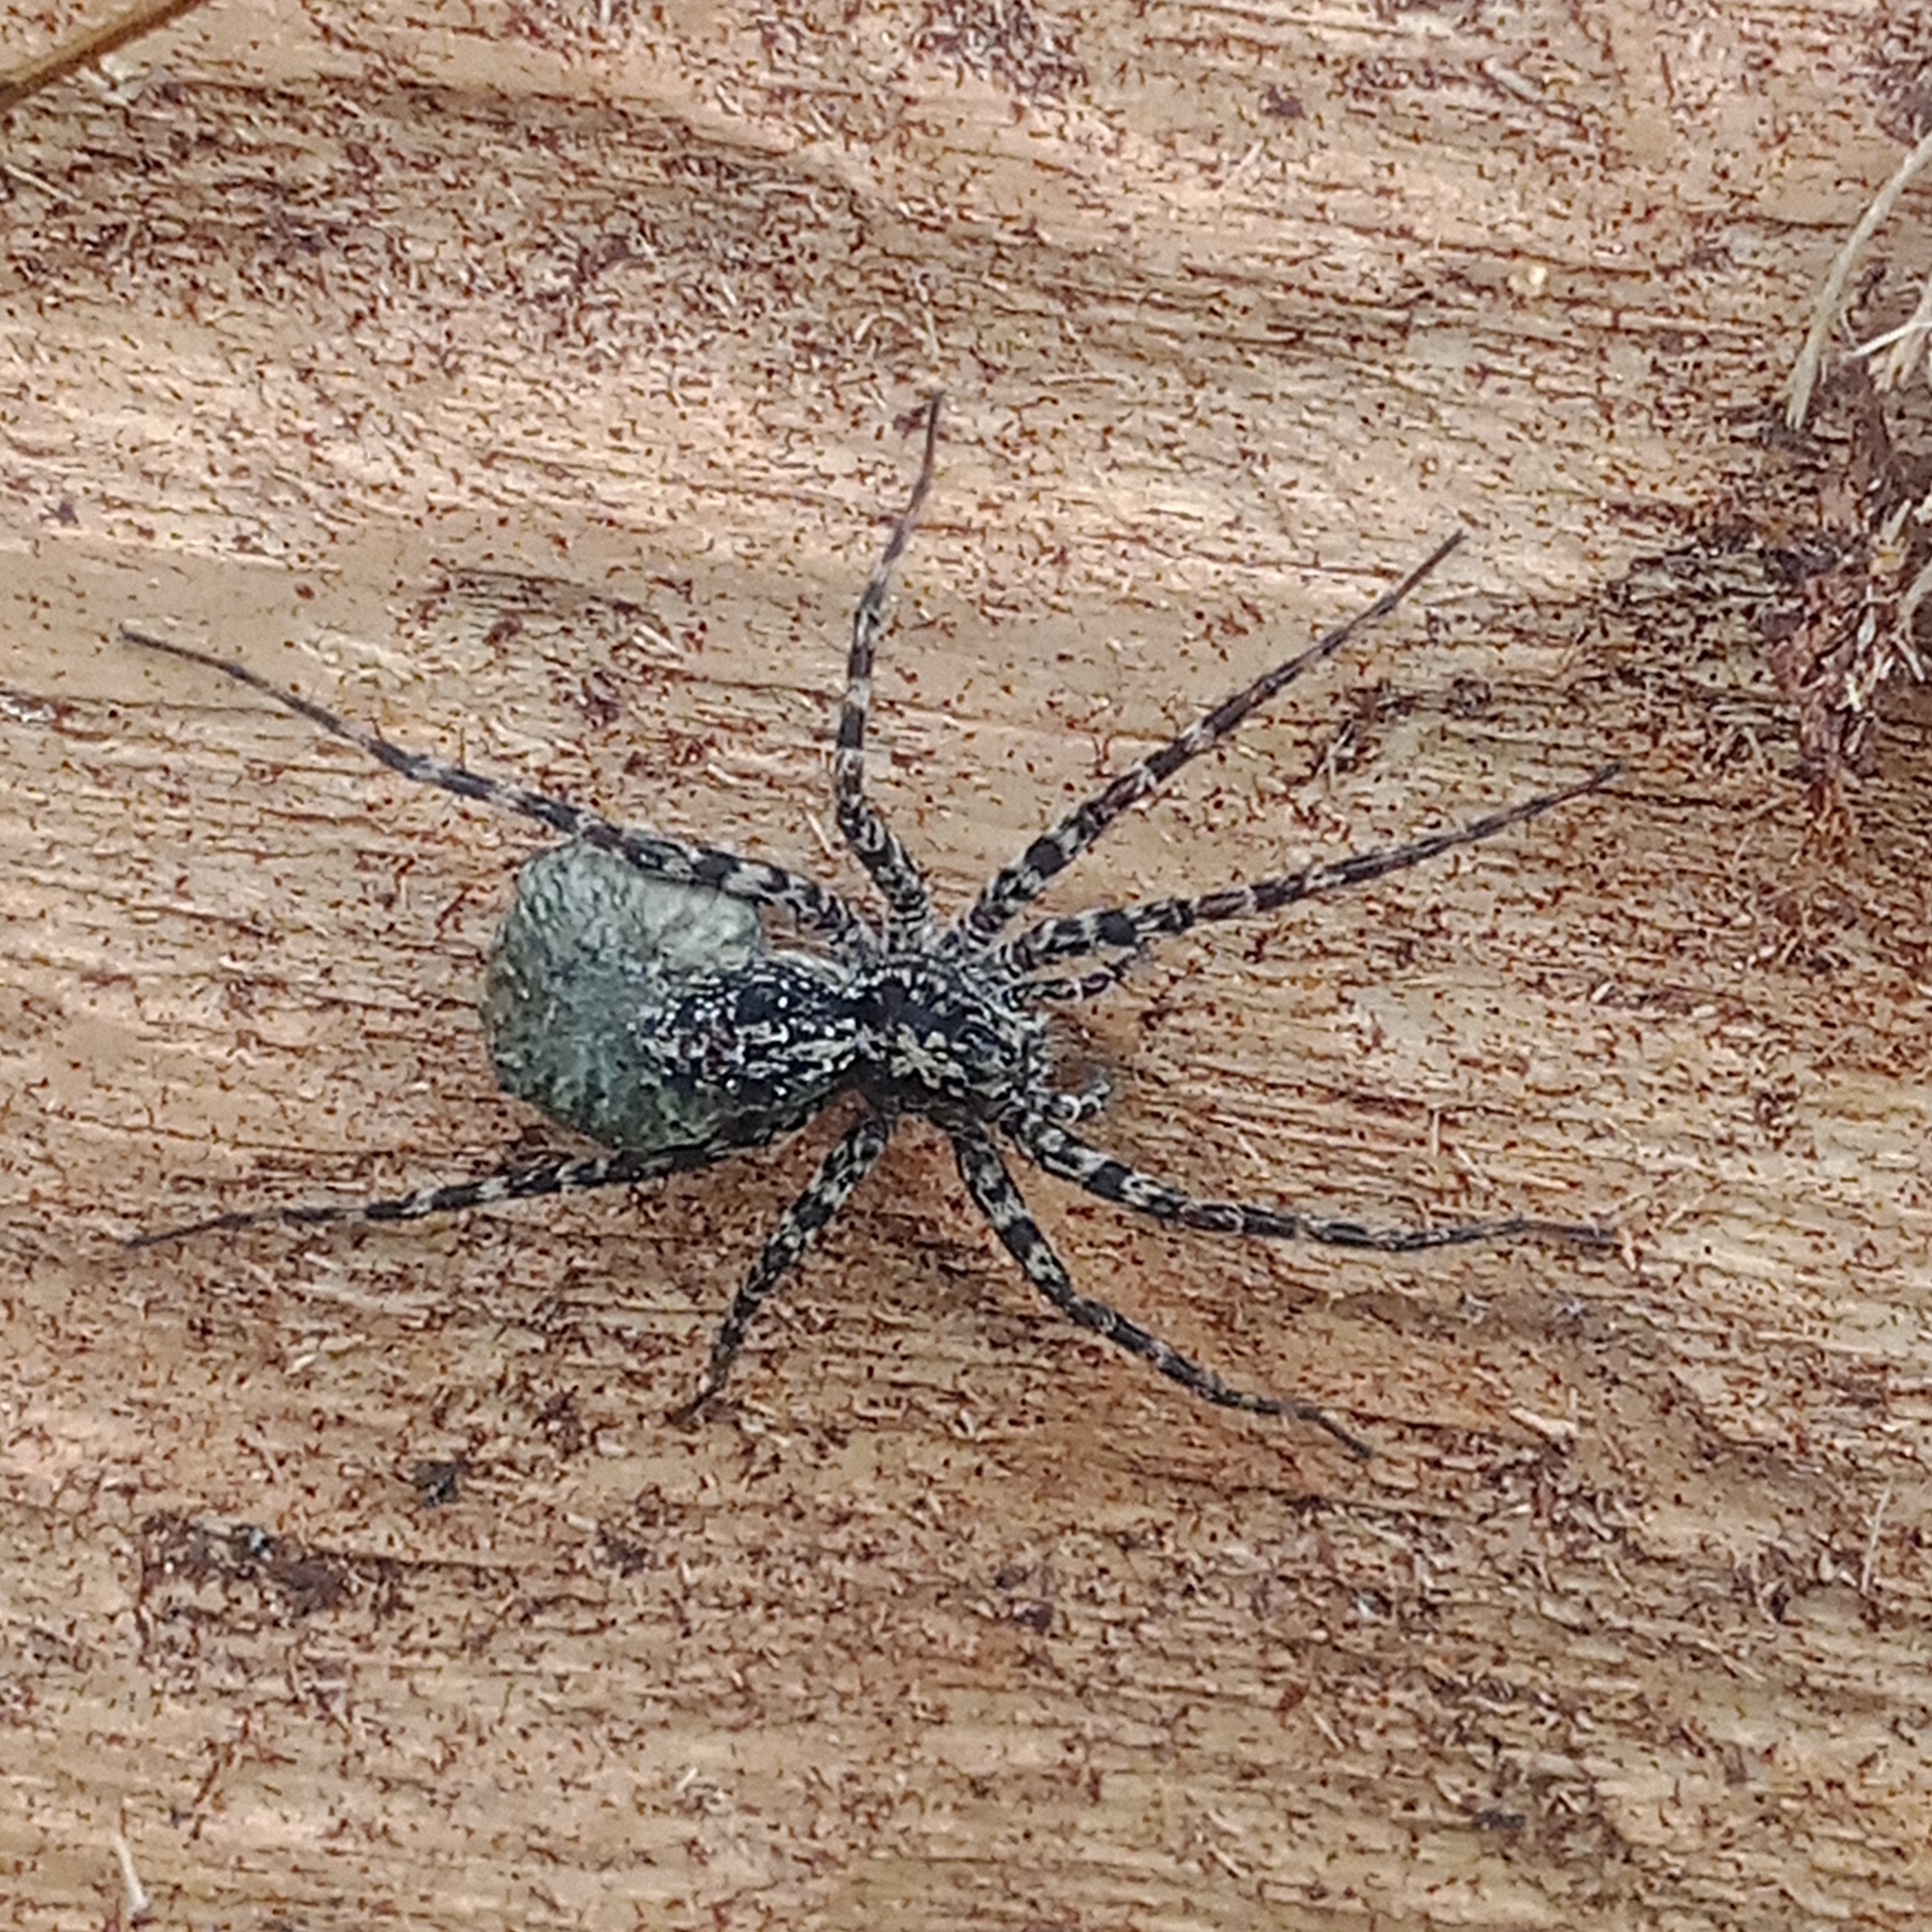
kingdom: Animalia
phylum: Arthropoda
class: Arachnida
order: Araneae
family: Lycosidae
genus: Acantholycosa
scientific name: Acantholycosa lignaria
